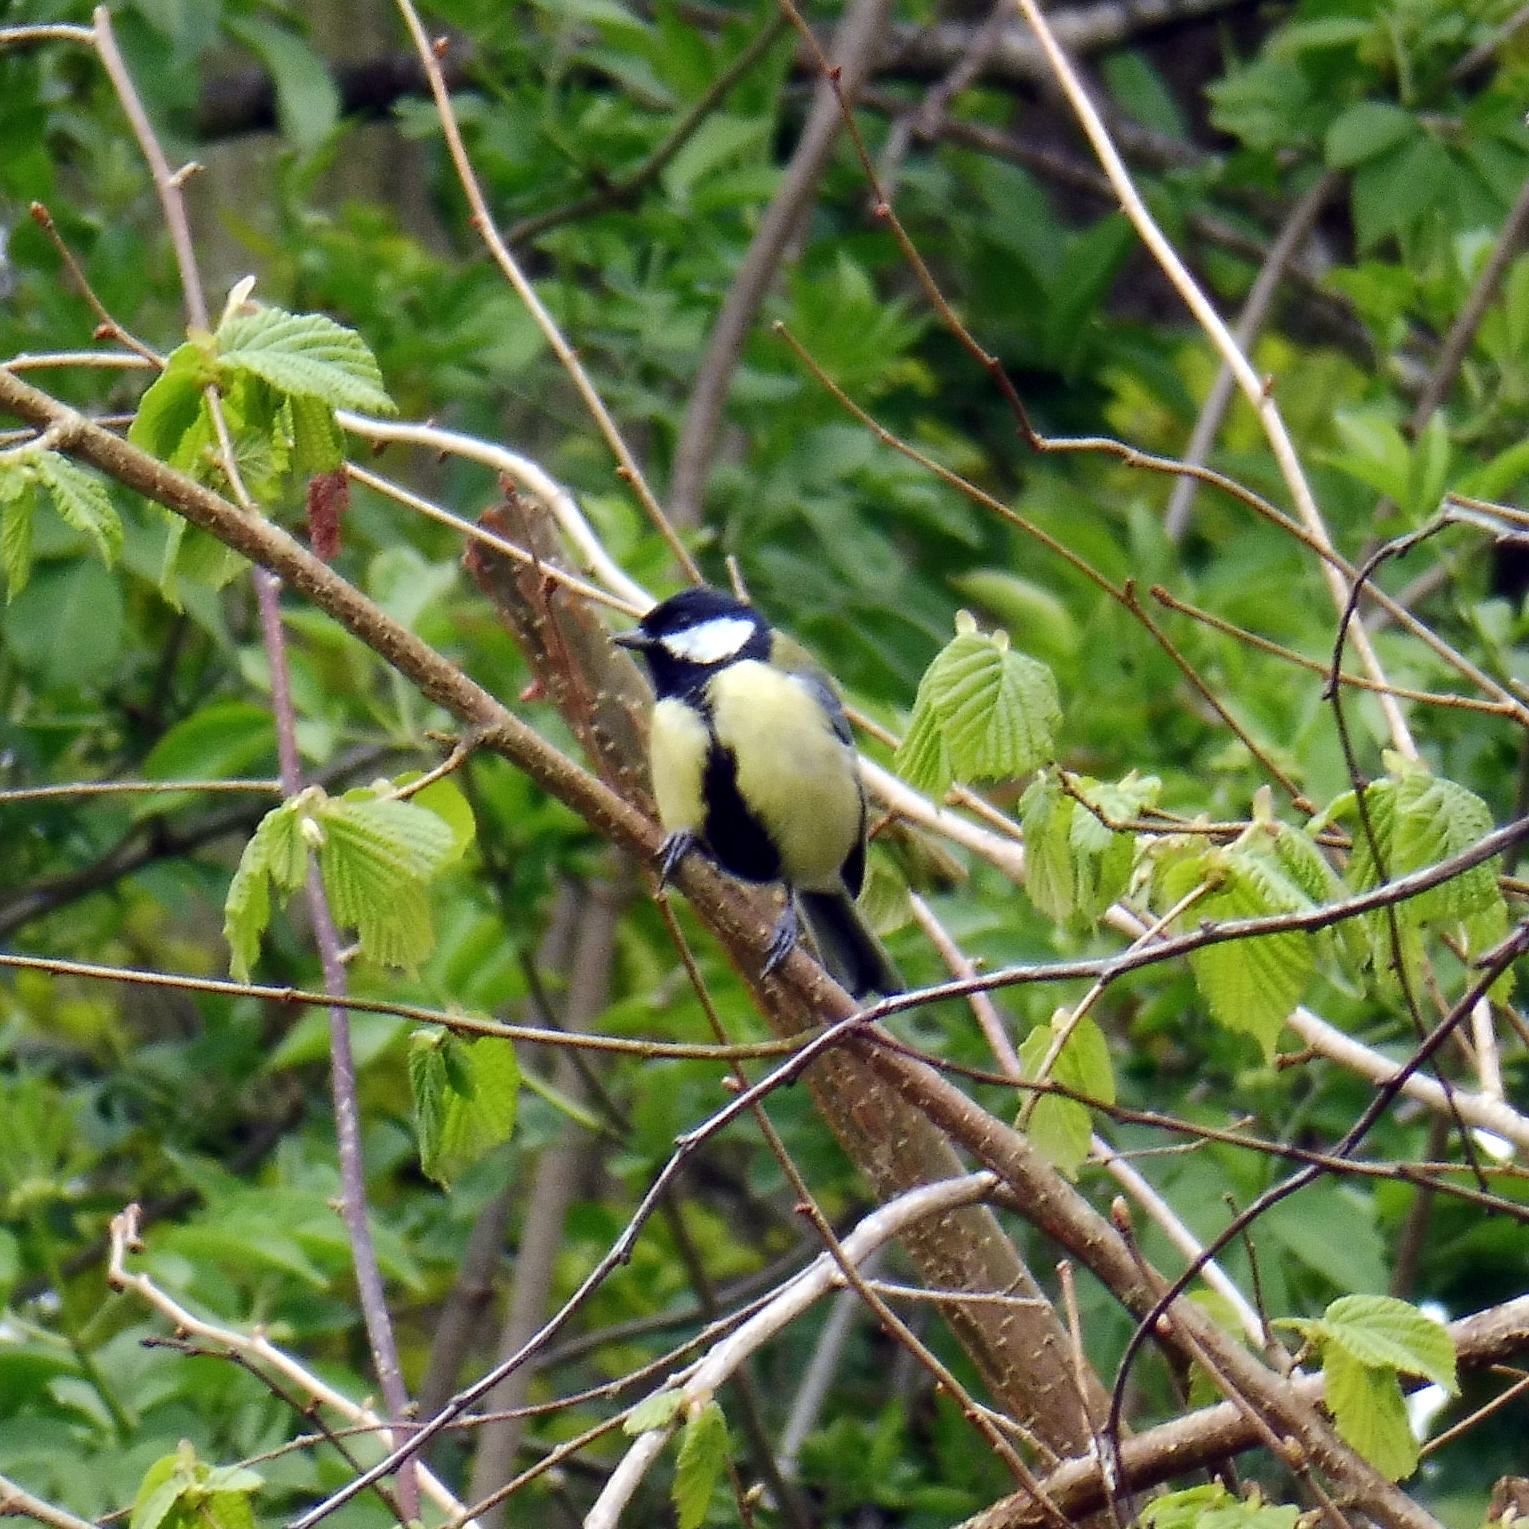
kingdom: Animalia
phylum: Chordata
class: Aves
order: Passeriformes
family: Paridae
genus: Parus
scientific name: Parus major
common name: Great tit
